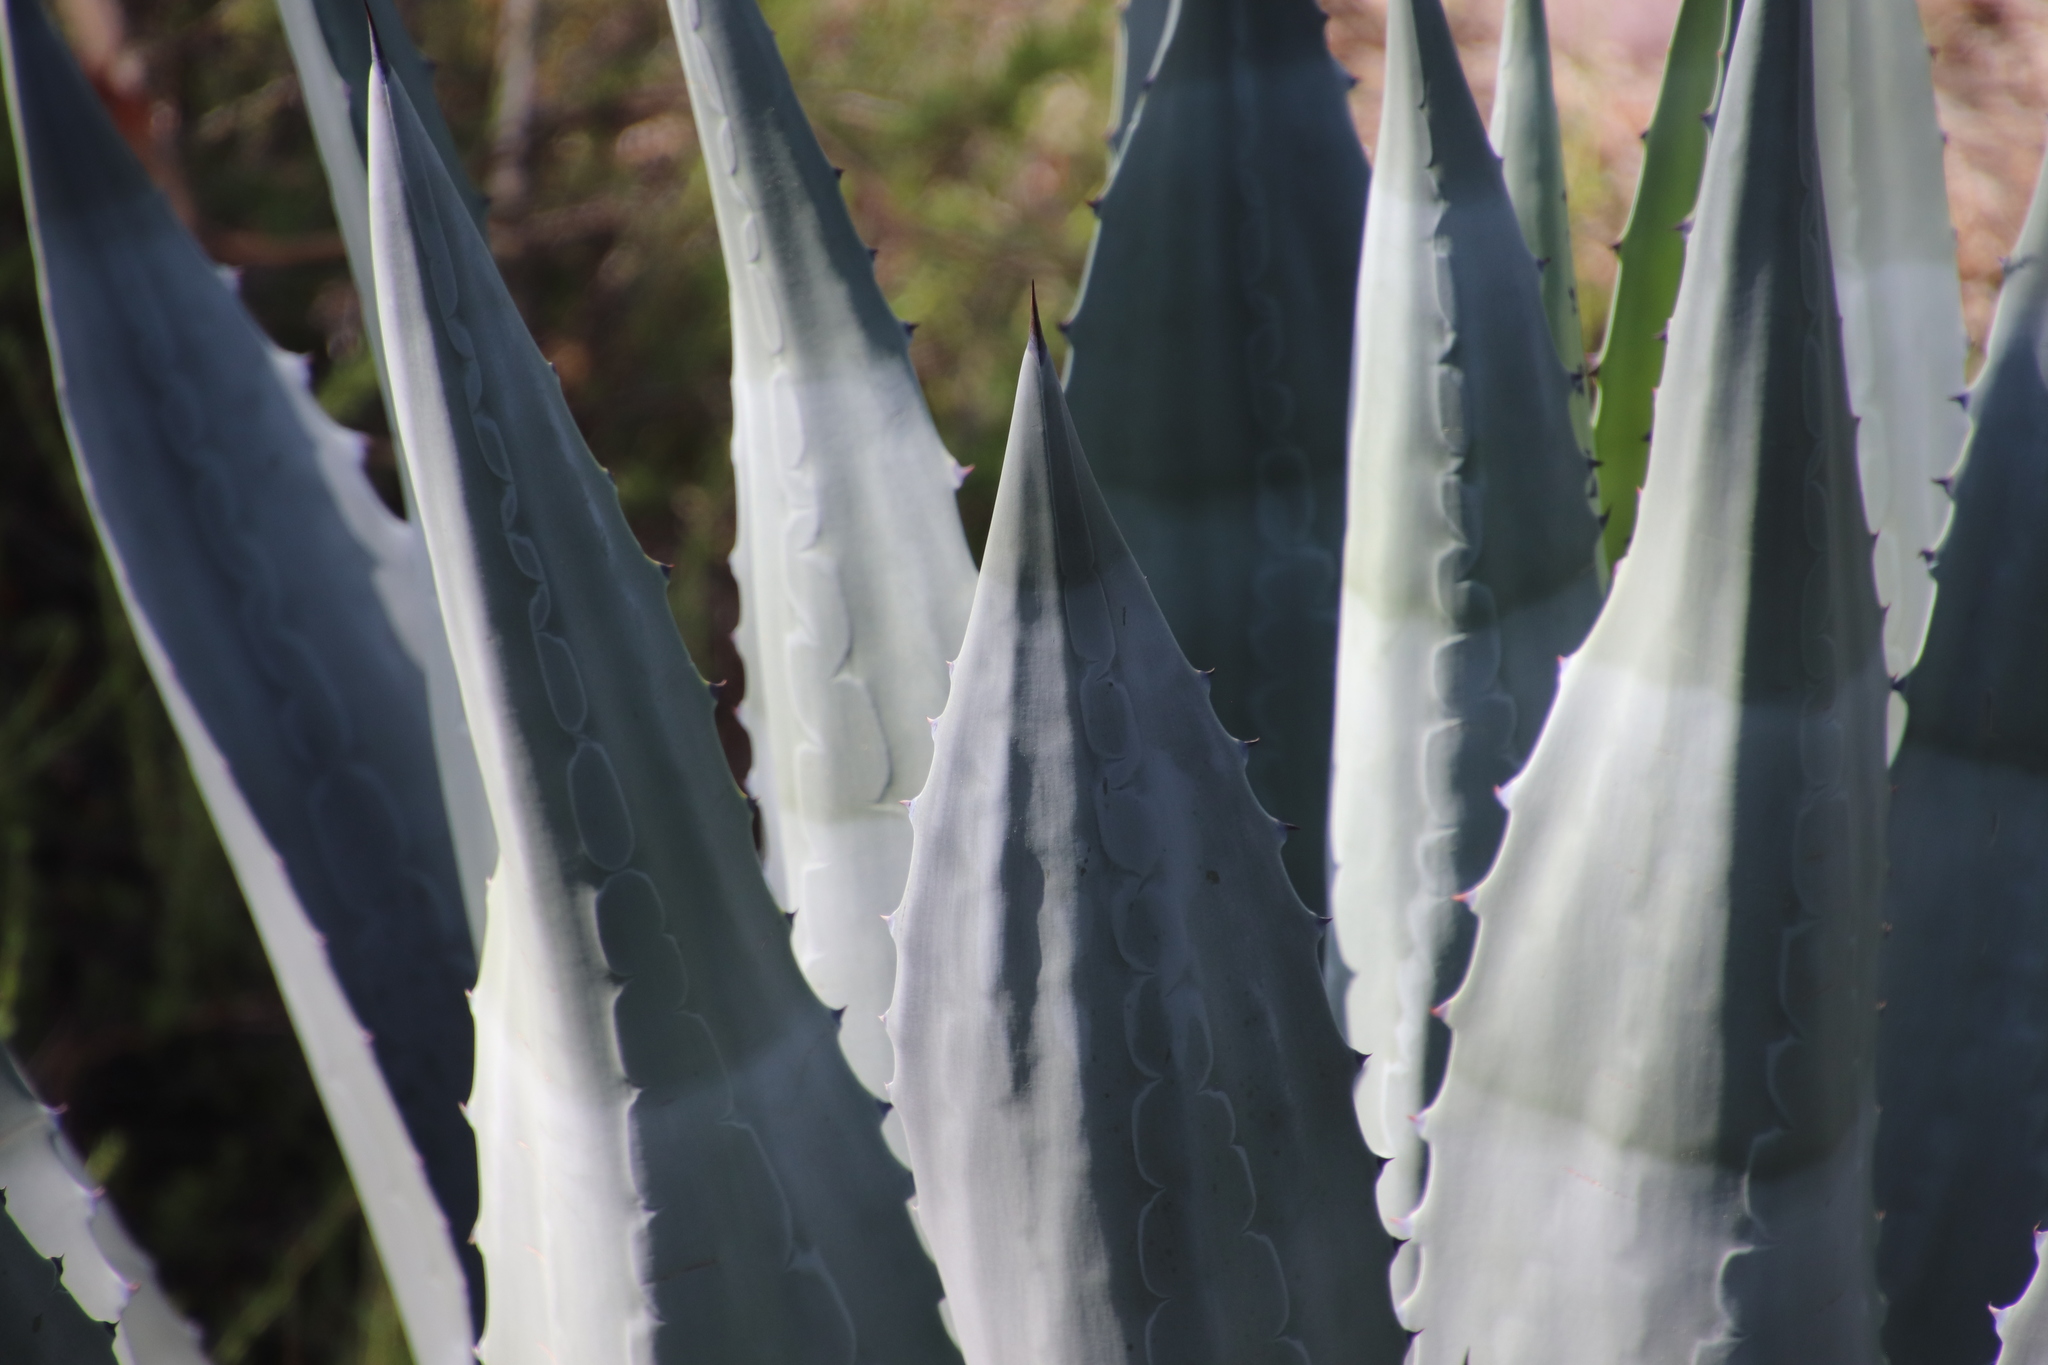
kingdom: Plantae
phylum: Tracheophyta
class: Liliopsida
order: Asparagales
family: Asparagaceae
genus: Agave
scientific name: Agave americana
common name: Centuryplant
